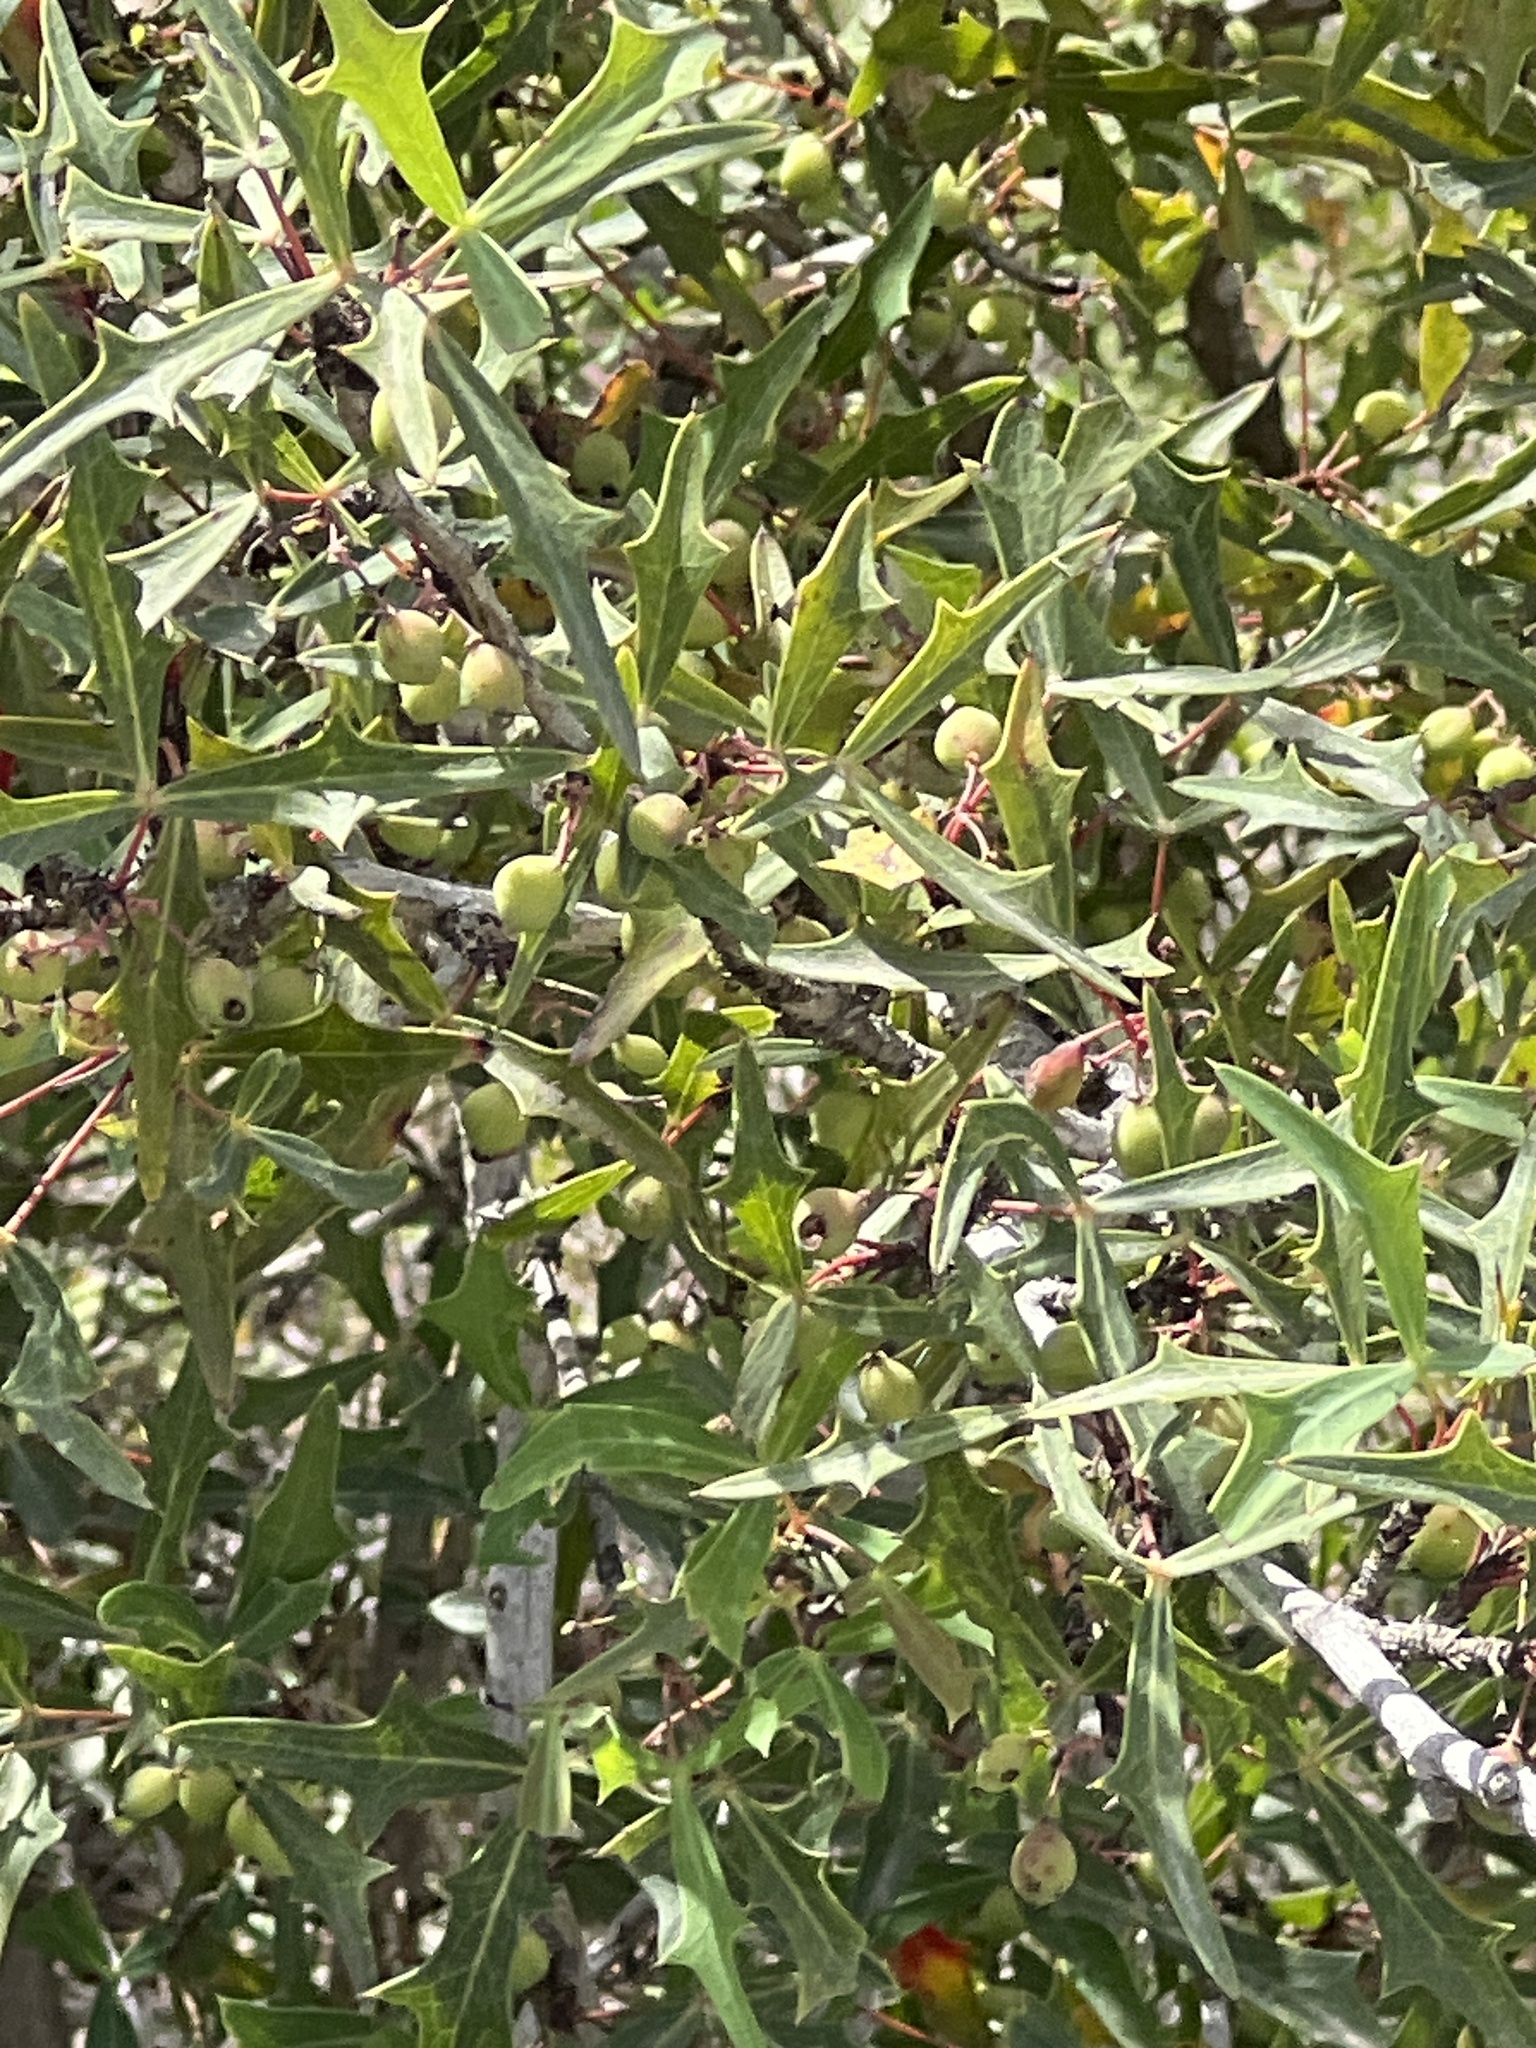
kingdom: Plantae
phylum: Tracheophyta
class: Magnoliopsida
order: Ranunculales
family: Berberidaceae
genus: Alloberberis
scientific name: Alloberberis trifoliolata
